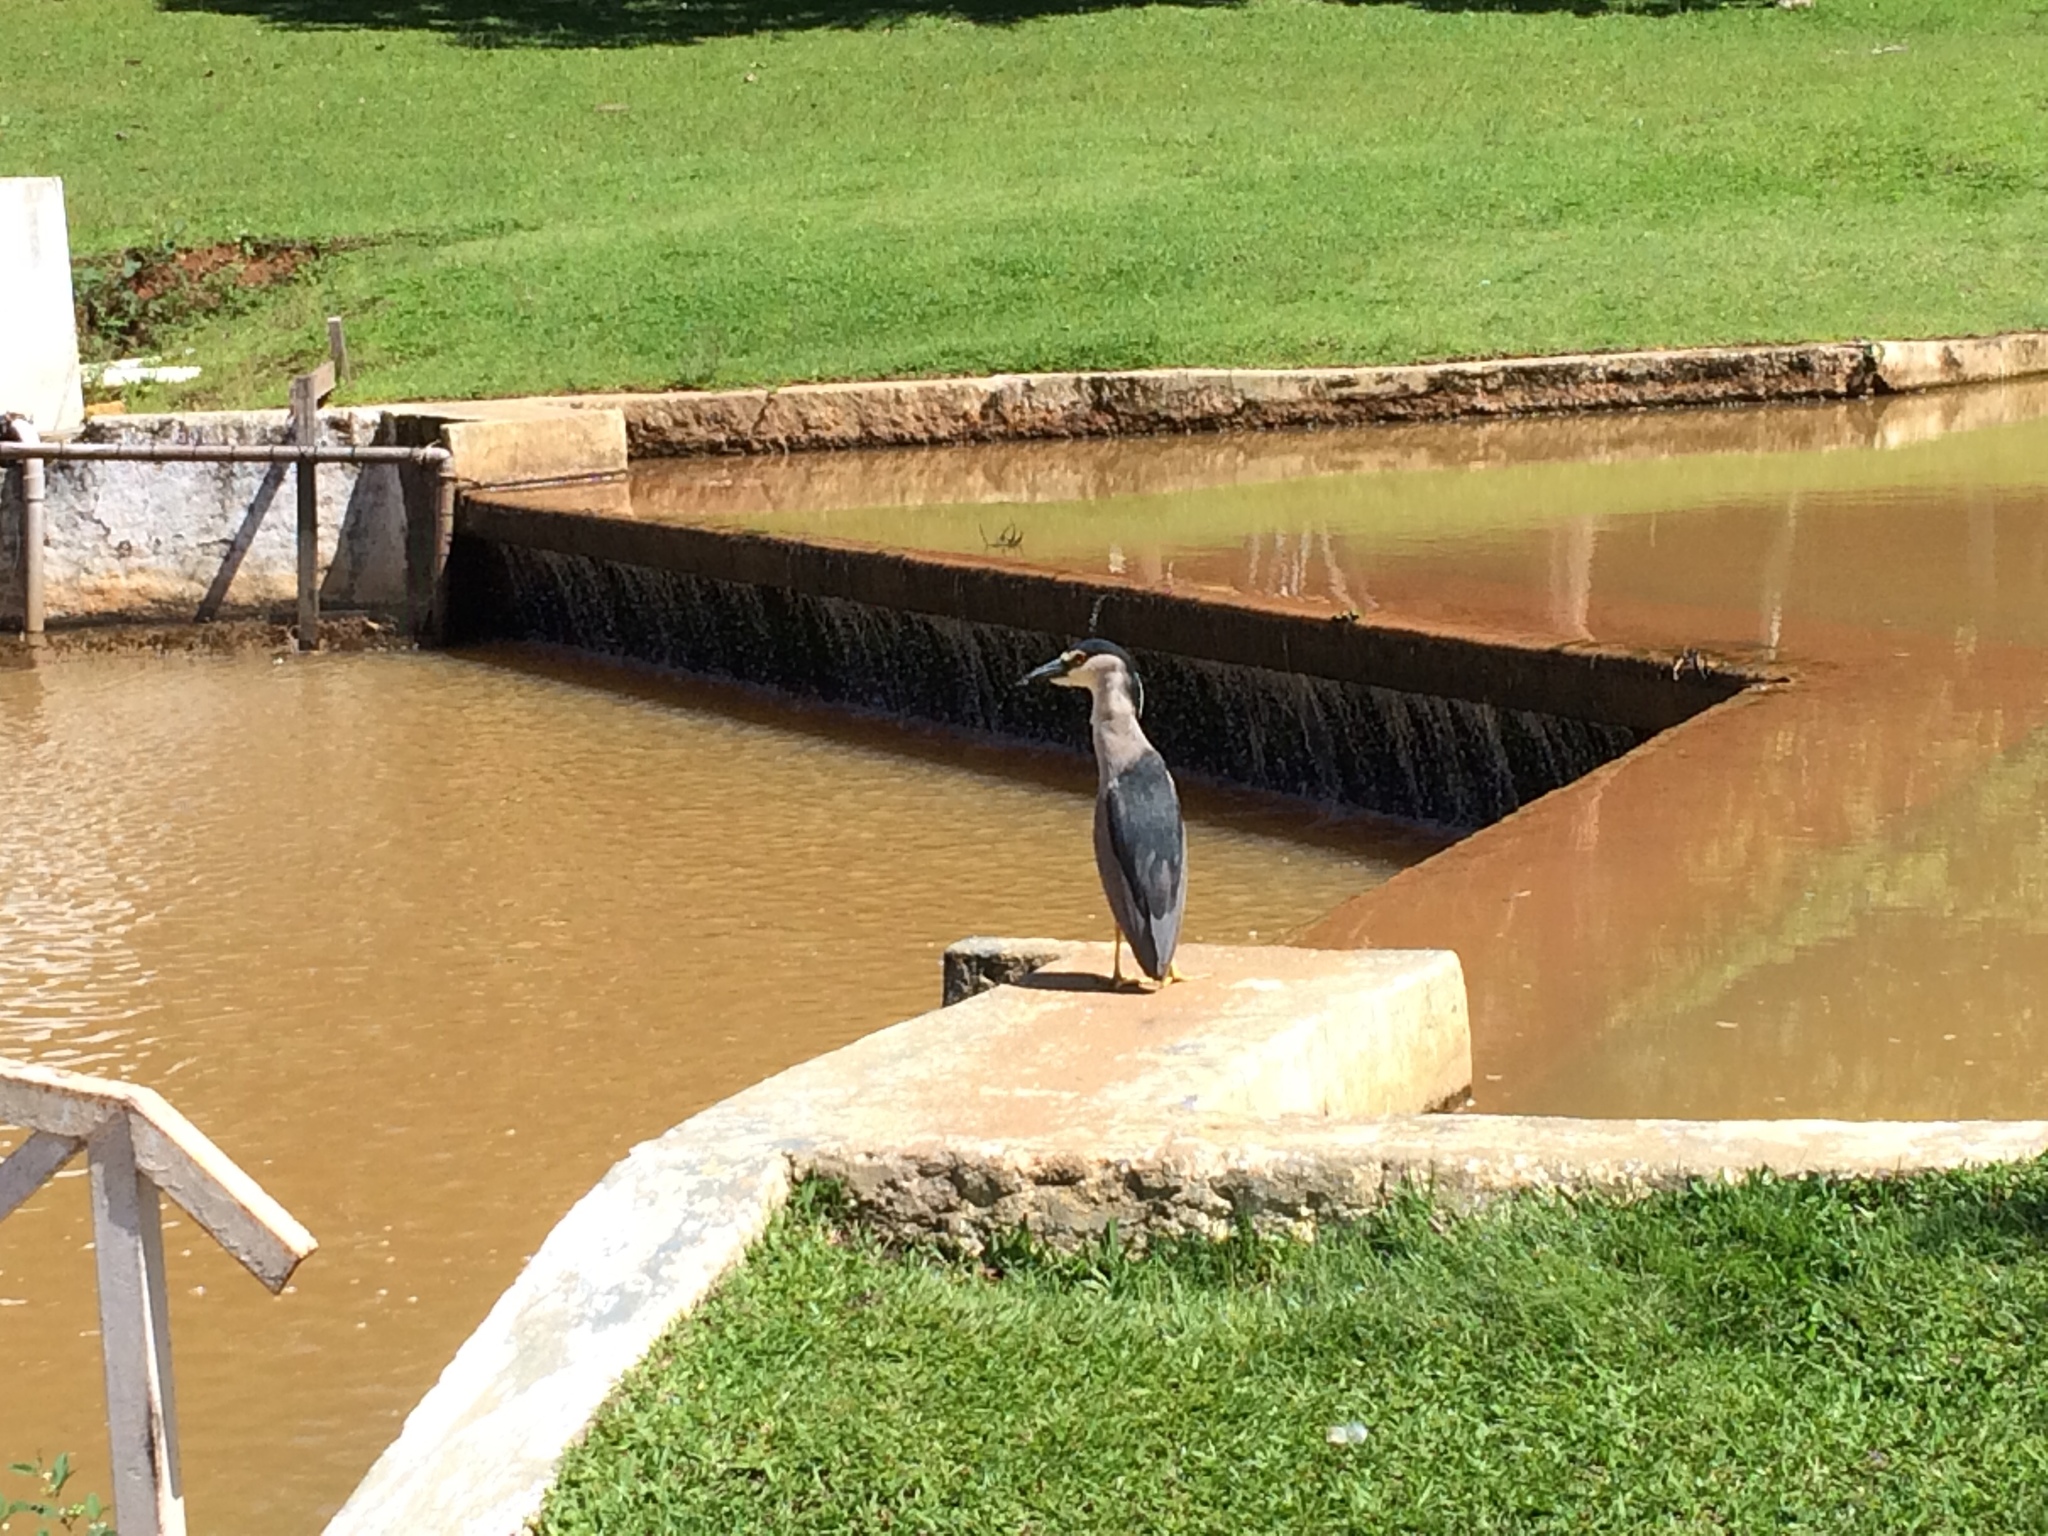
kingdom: Animalia
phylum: Chordata
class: Aves
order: Pelecaniformes
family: Ardeidae
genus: Nycticorax
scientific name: Nycticorax nycticorax
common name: Black-crowned night heron
